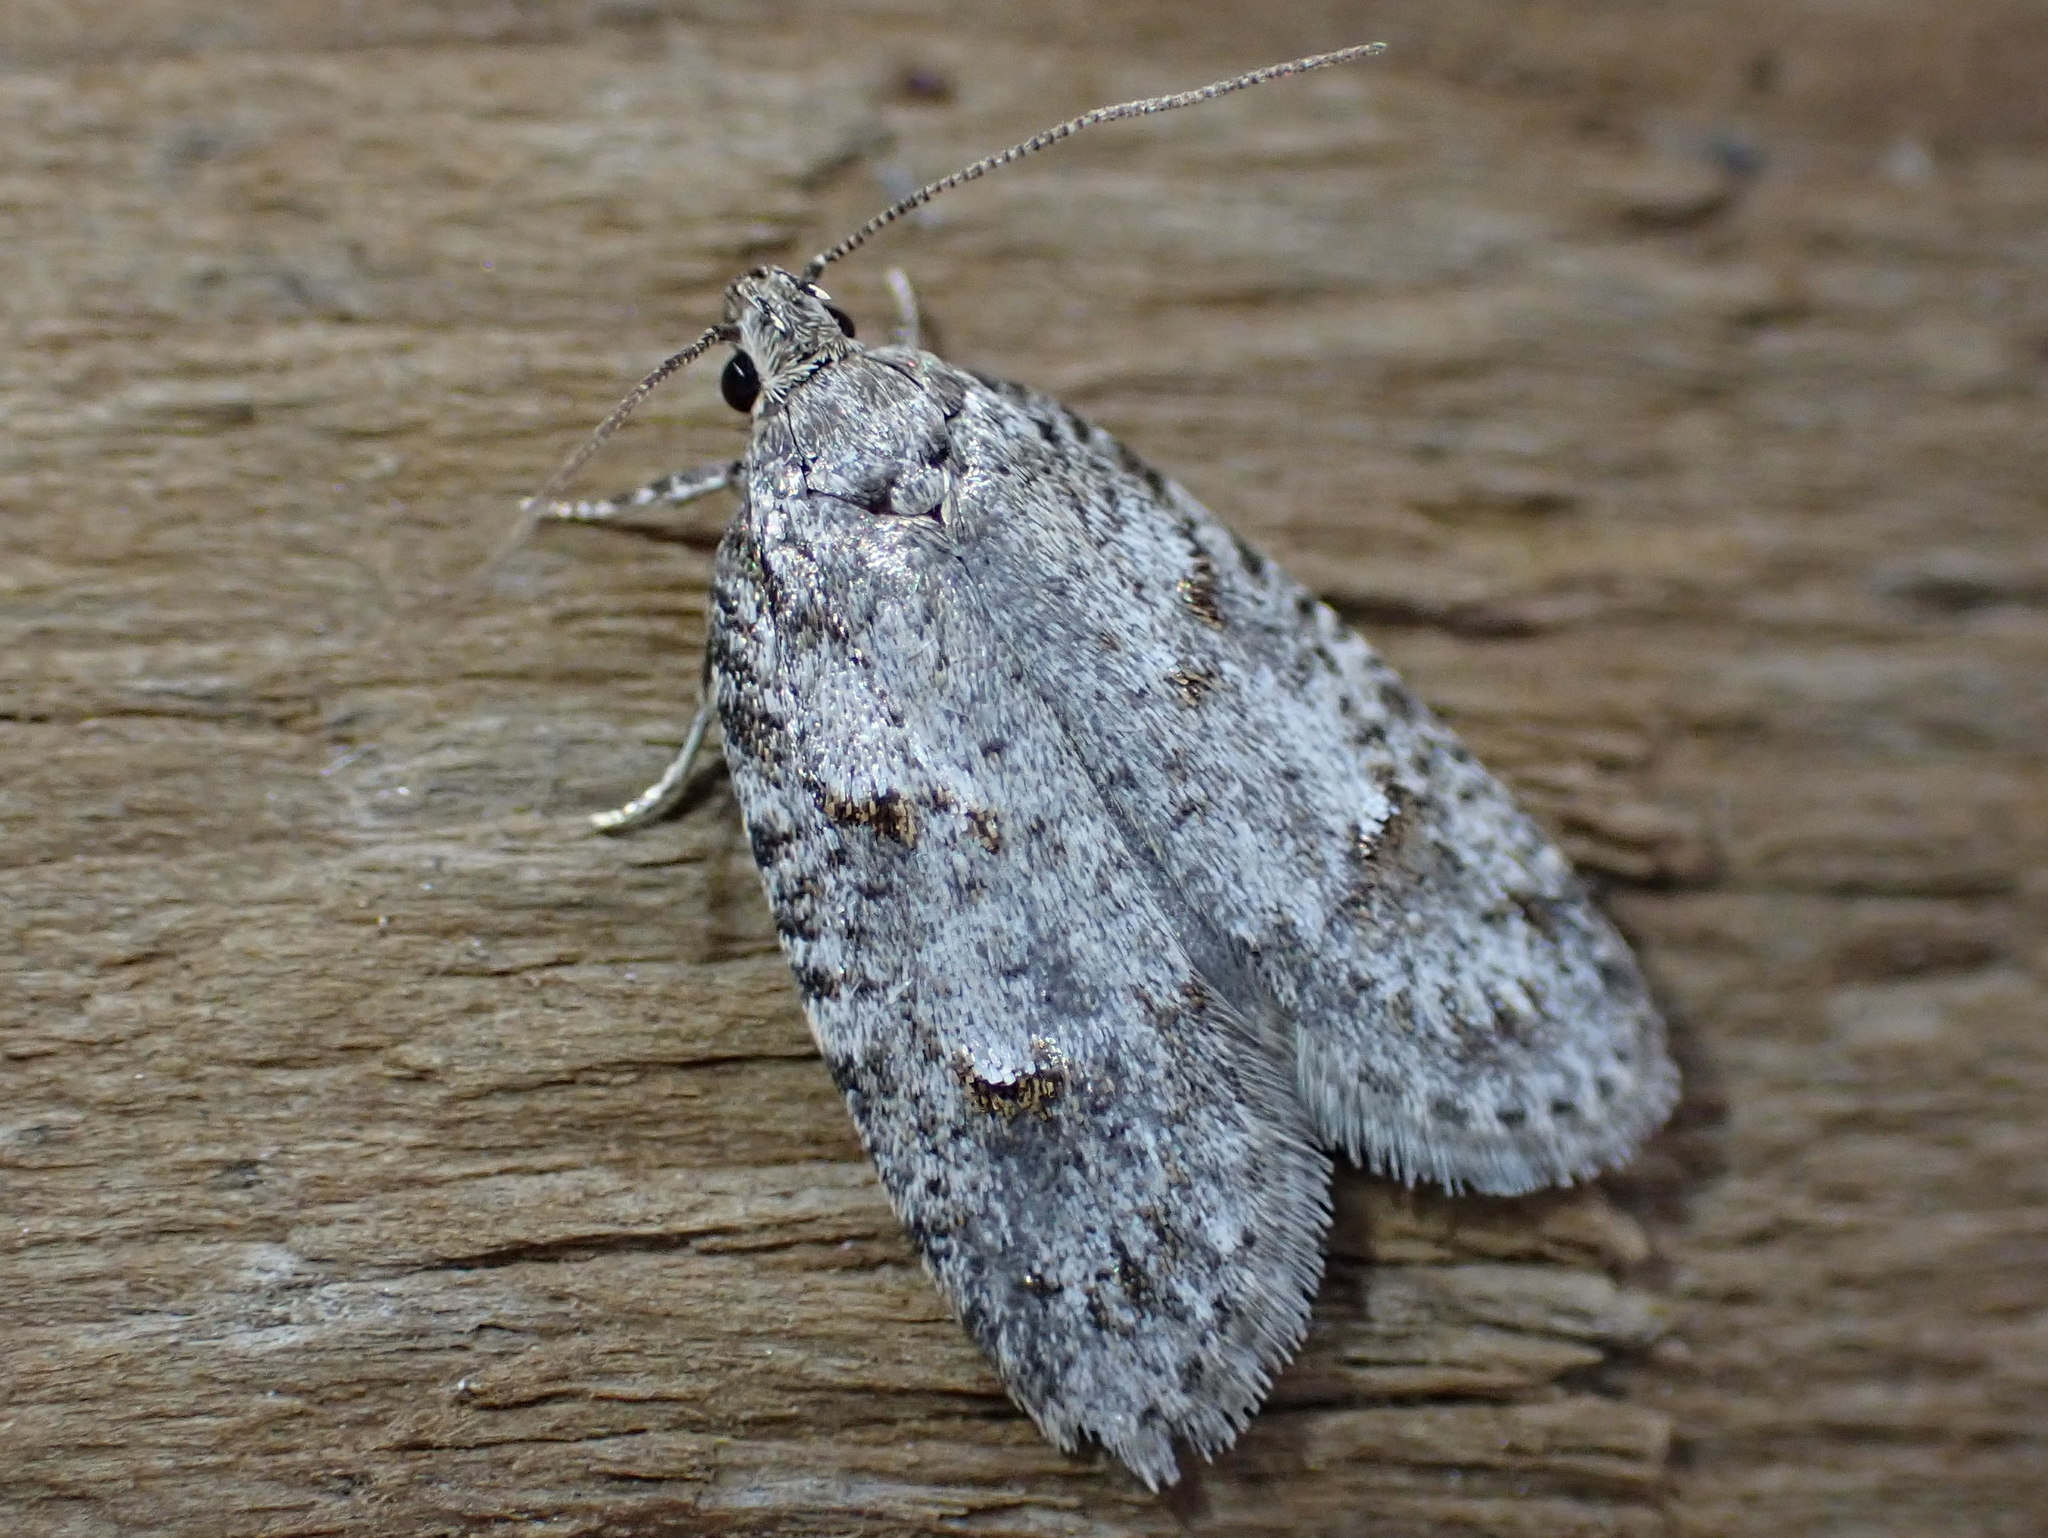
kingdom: Animalia
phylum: Arthropoda
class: Insecta
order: Lepidoptera
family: Depressariidae
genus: Bibarrambla
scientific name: Bibarrambla allenella
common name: Bog bibarrambla moth
